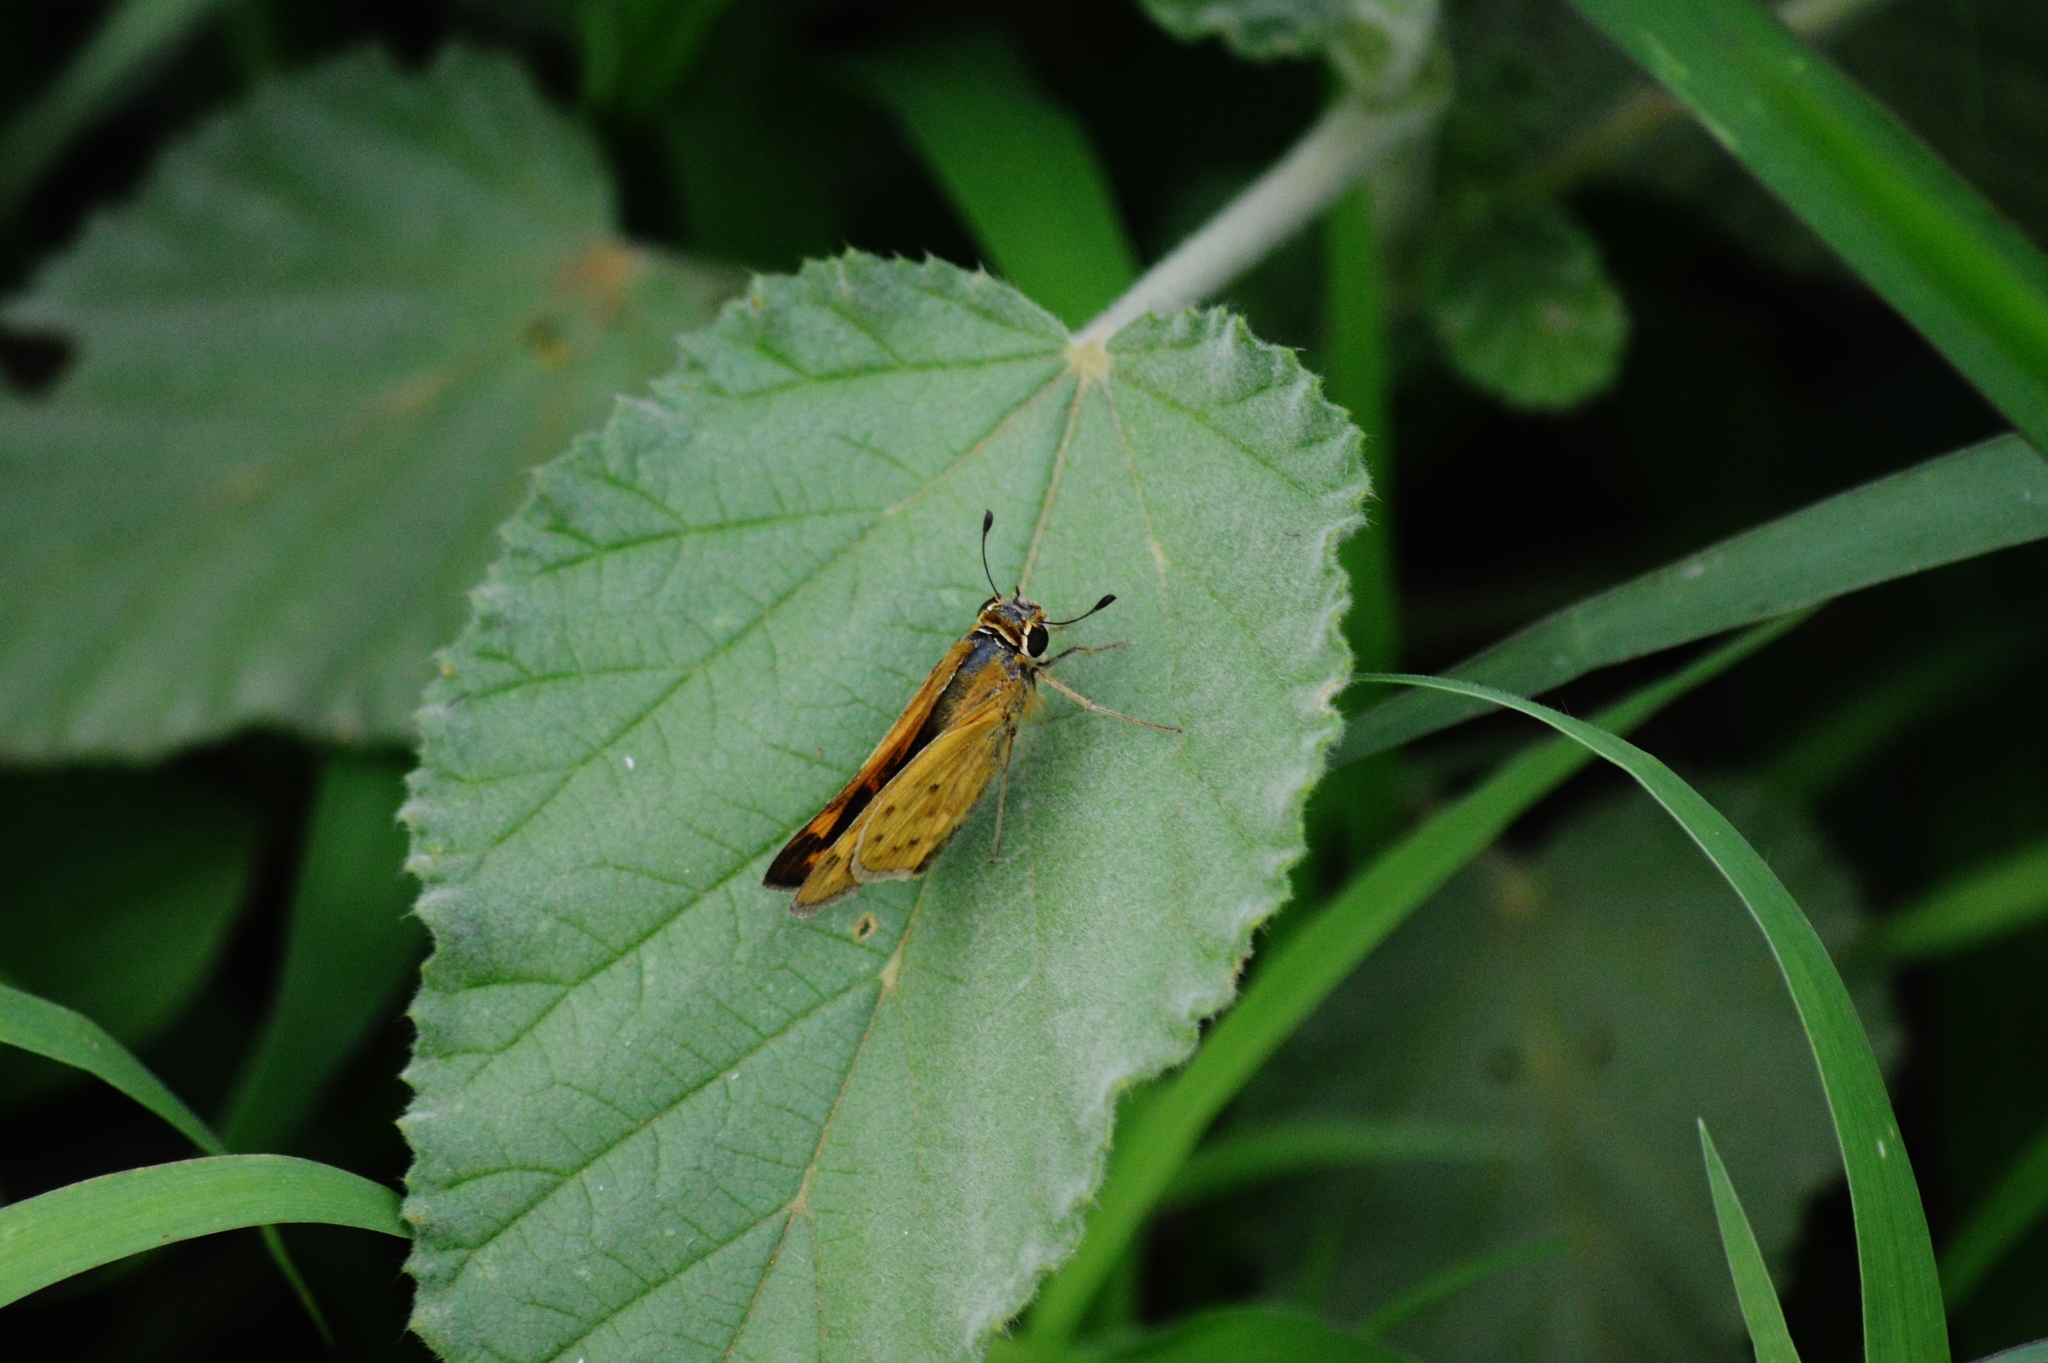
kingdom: Animalia
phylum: Arthropoda
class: Insecta
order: Lepidoptera
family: Hesperiidae
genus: Hylephila
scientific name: Hylephila phyleus
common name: Fiery skipper
